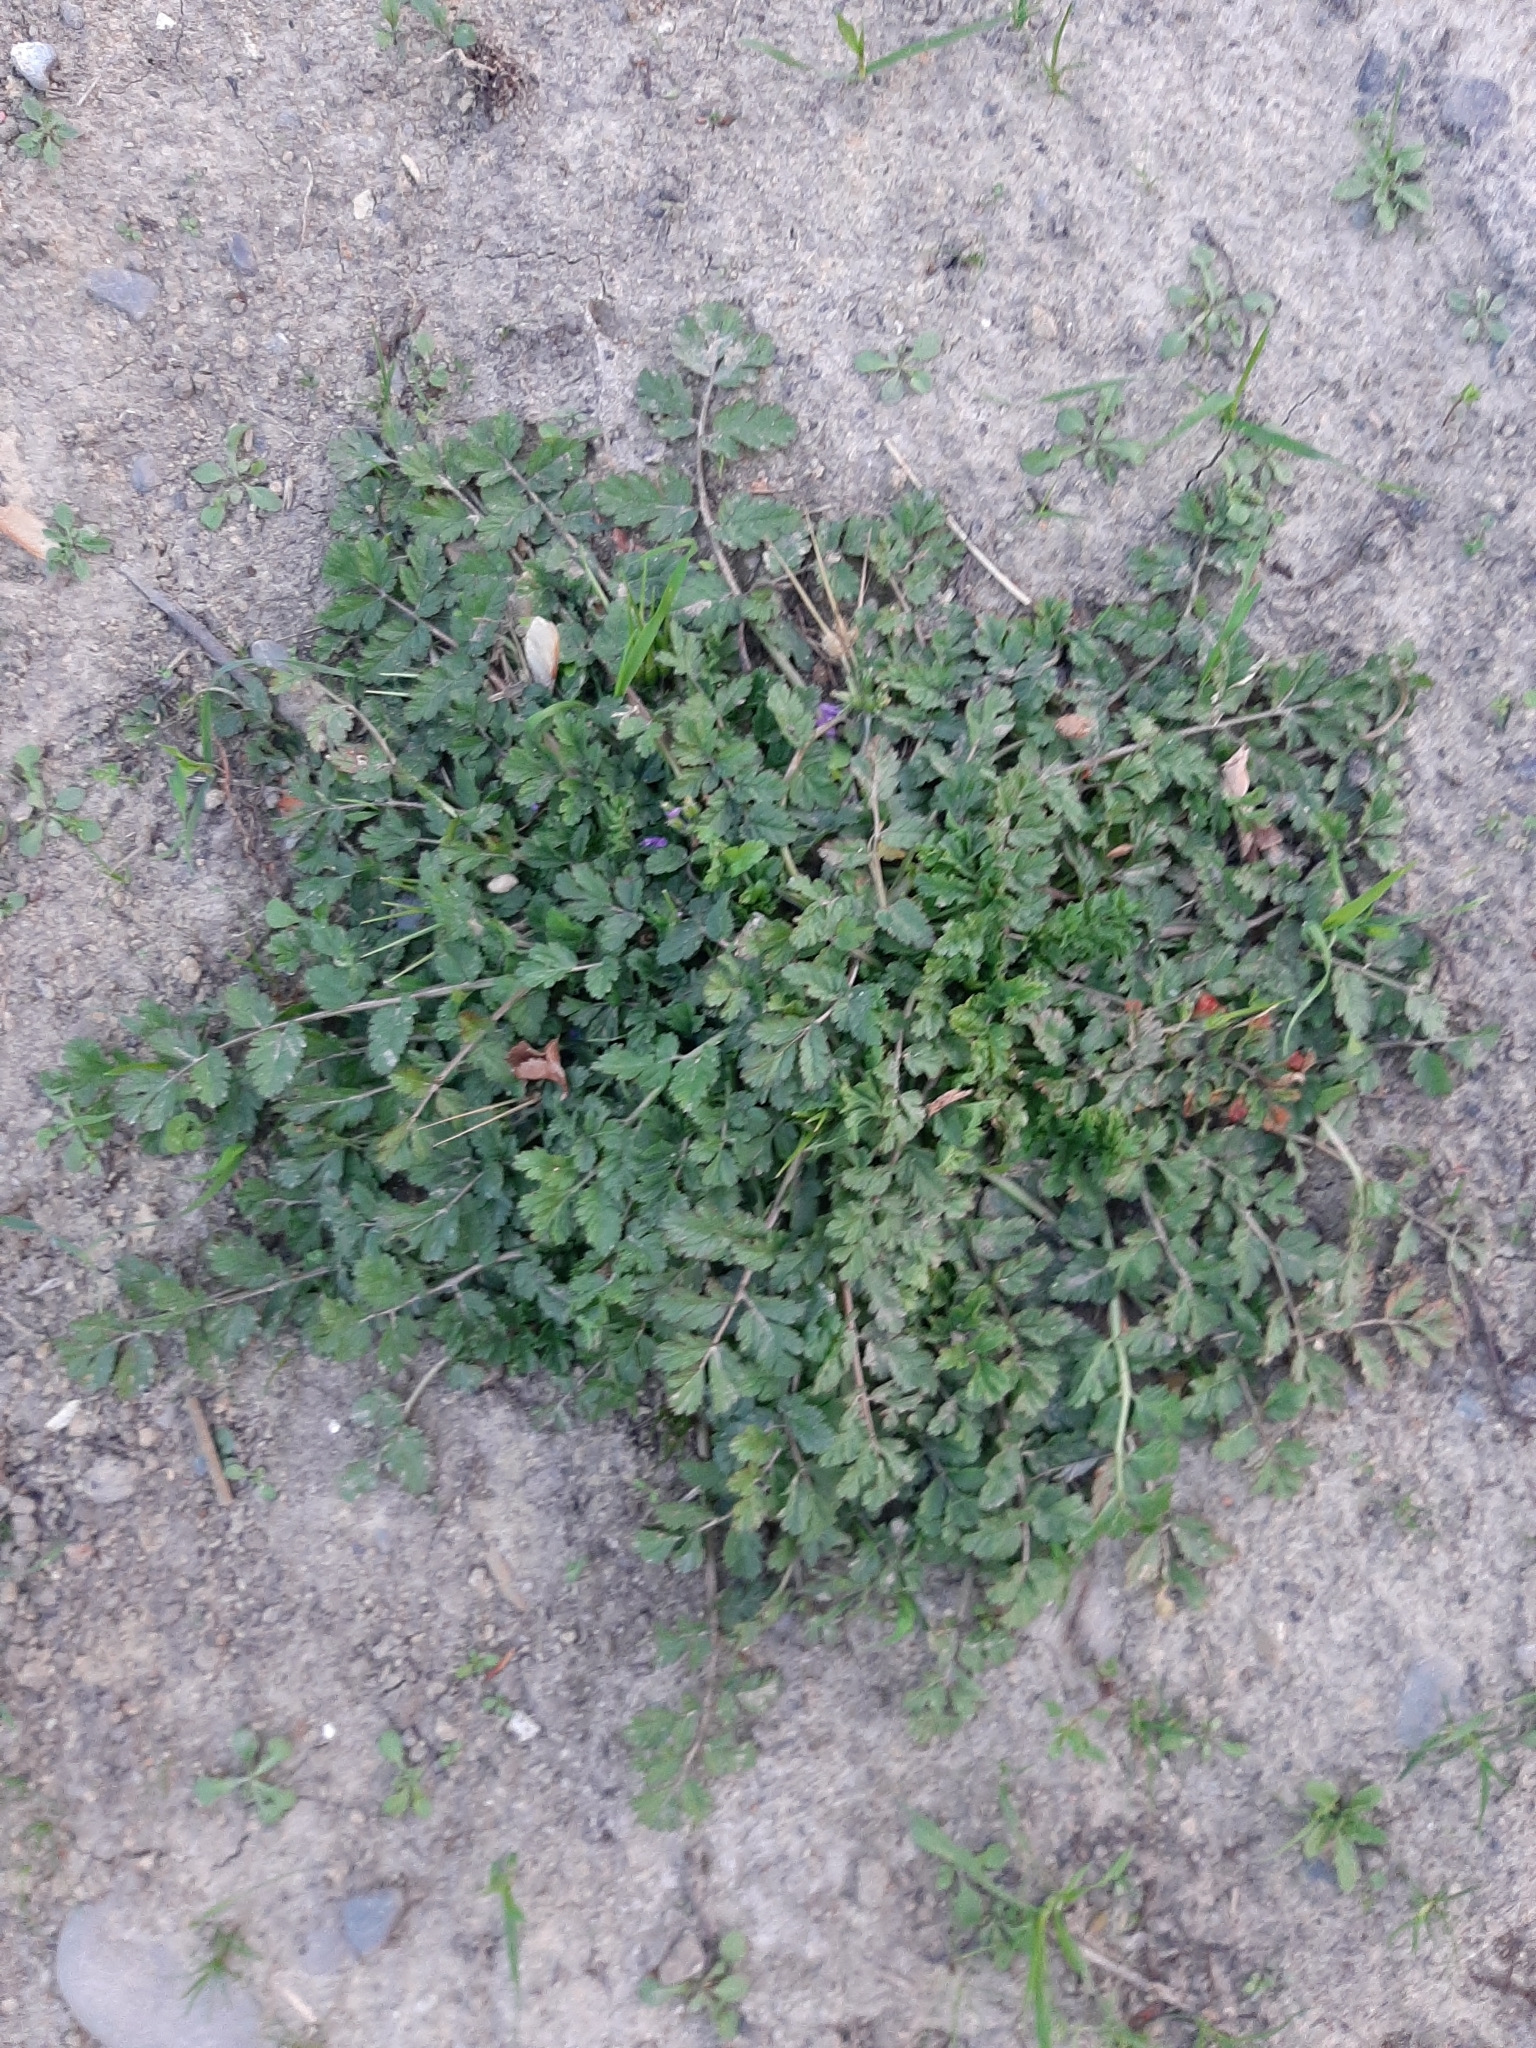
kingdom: Plantae
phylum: Tracheophyta
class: Magnoliopsida
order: Geraniales
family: Geraniaceae
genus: Erodium
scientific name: Erodium moschatum
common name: Musk stork's-bill
